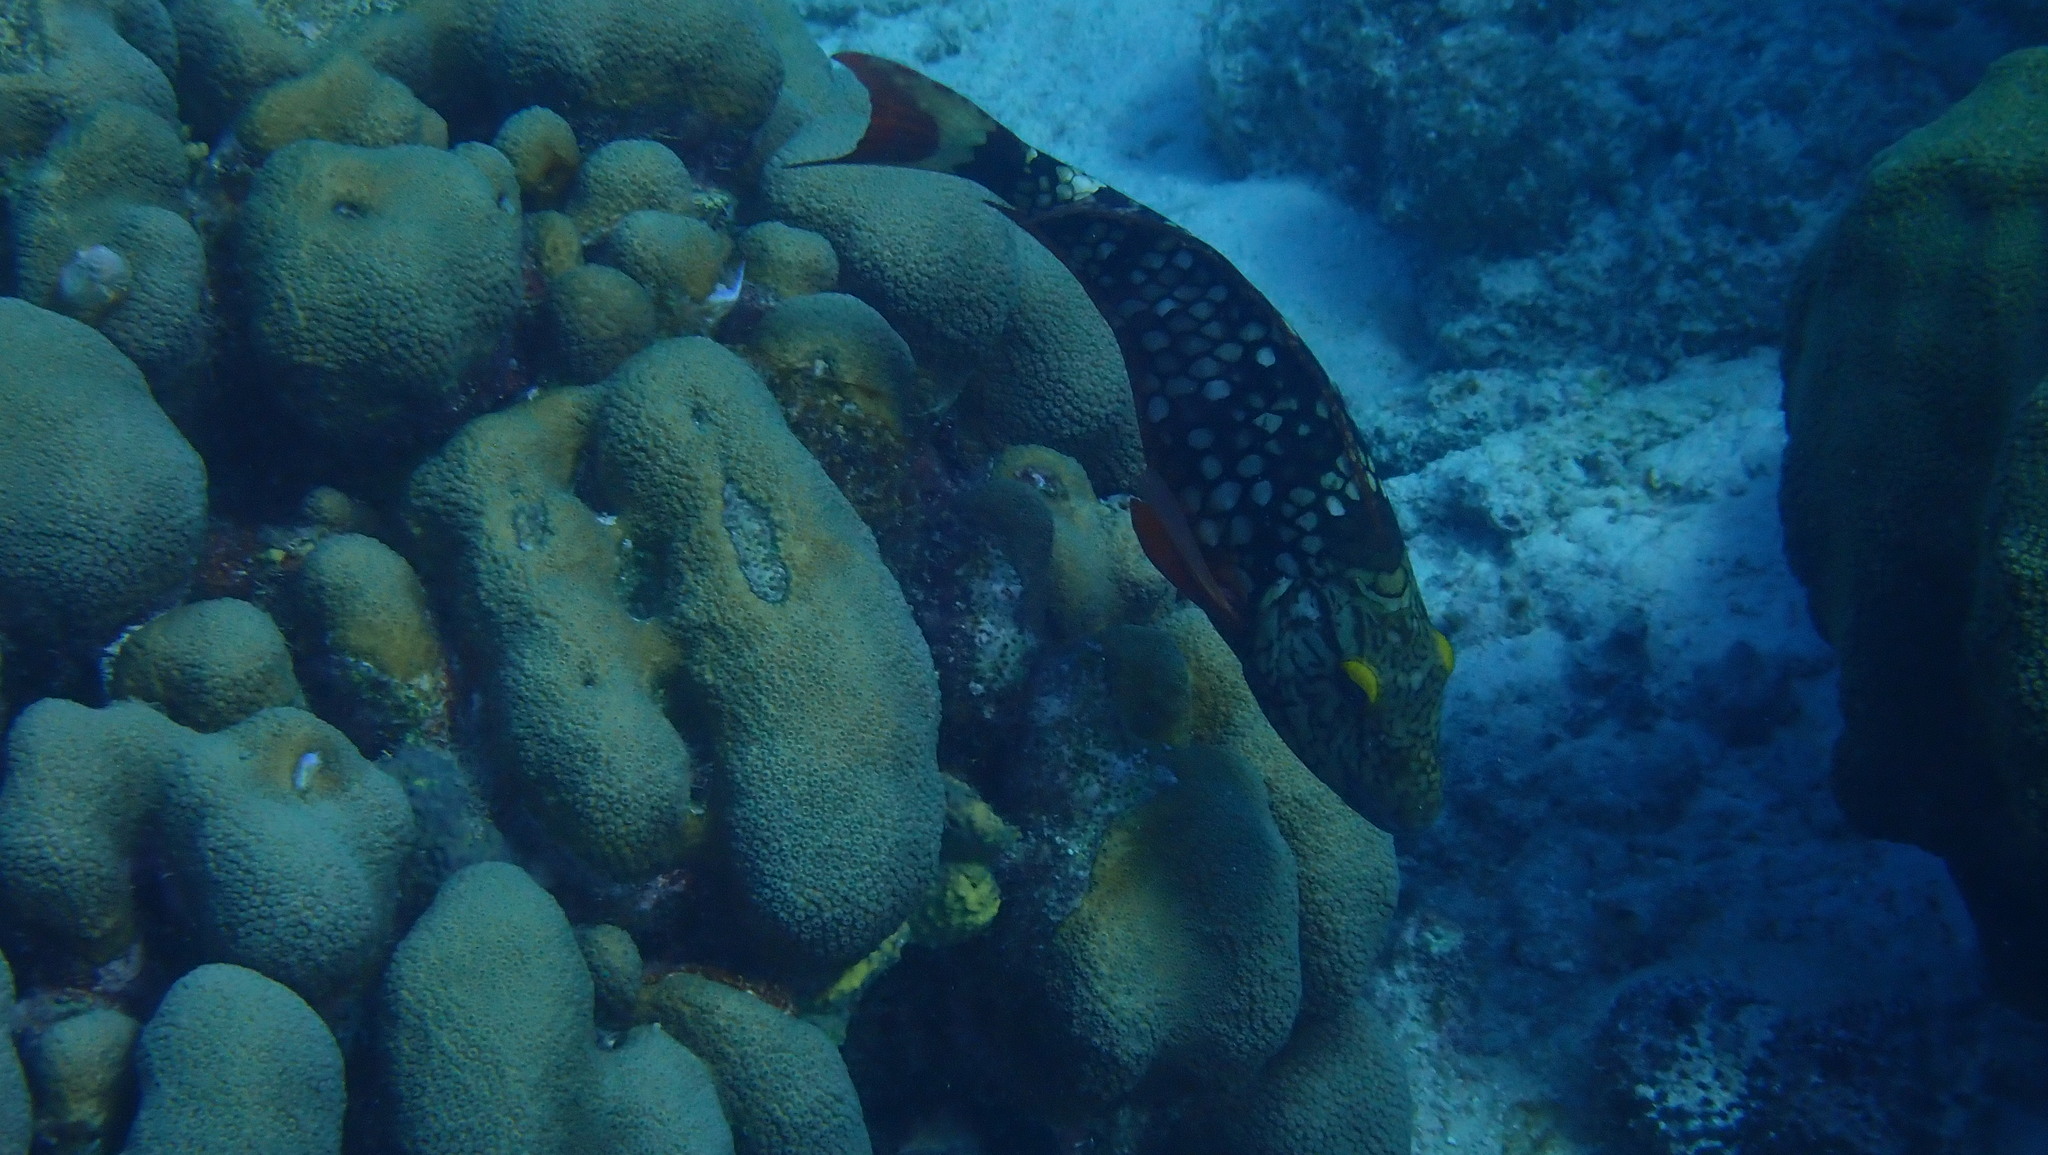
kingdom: Animalia
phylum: Chordata
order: Perciformes
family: Scaridae
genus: Sparisoma
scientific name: Sparisoma viride
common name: Stoplight parrotfish
